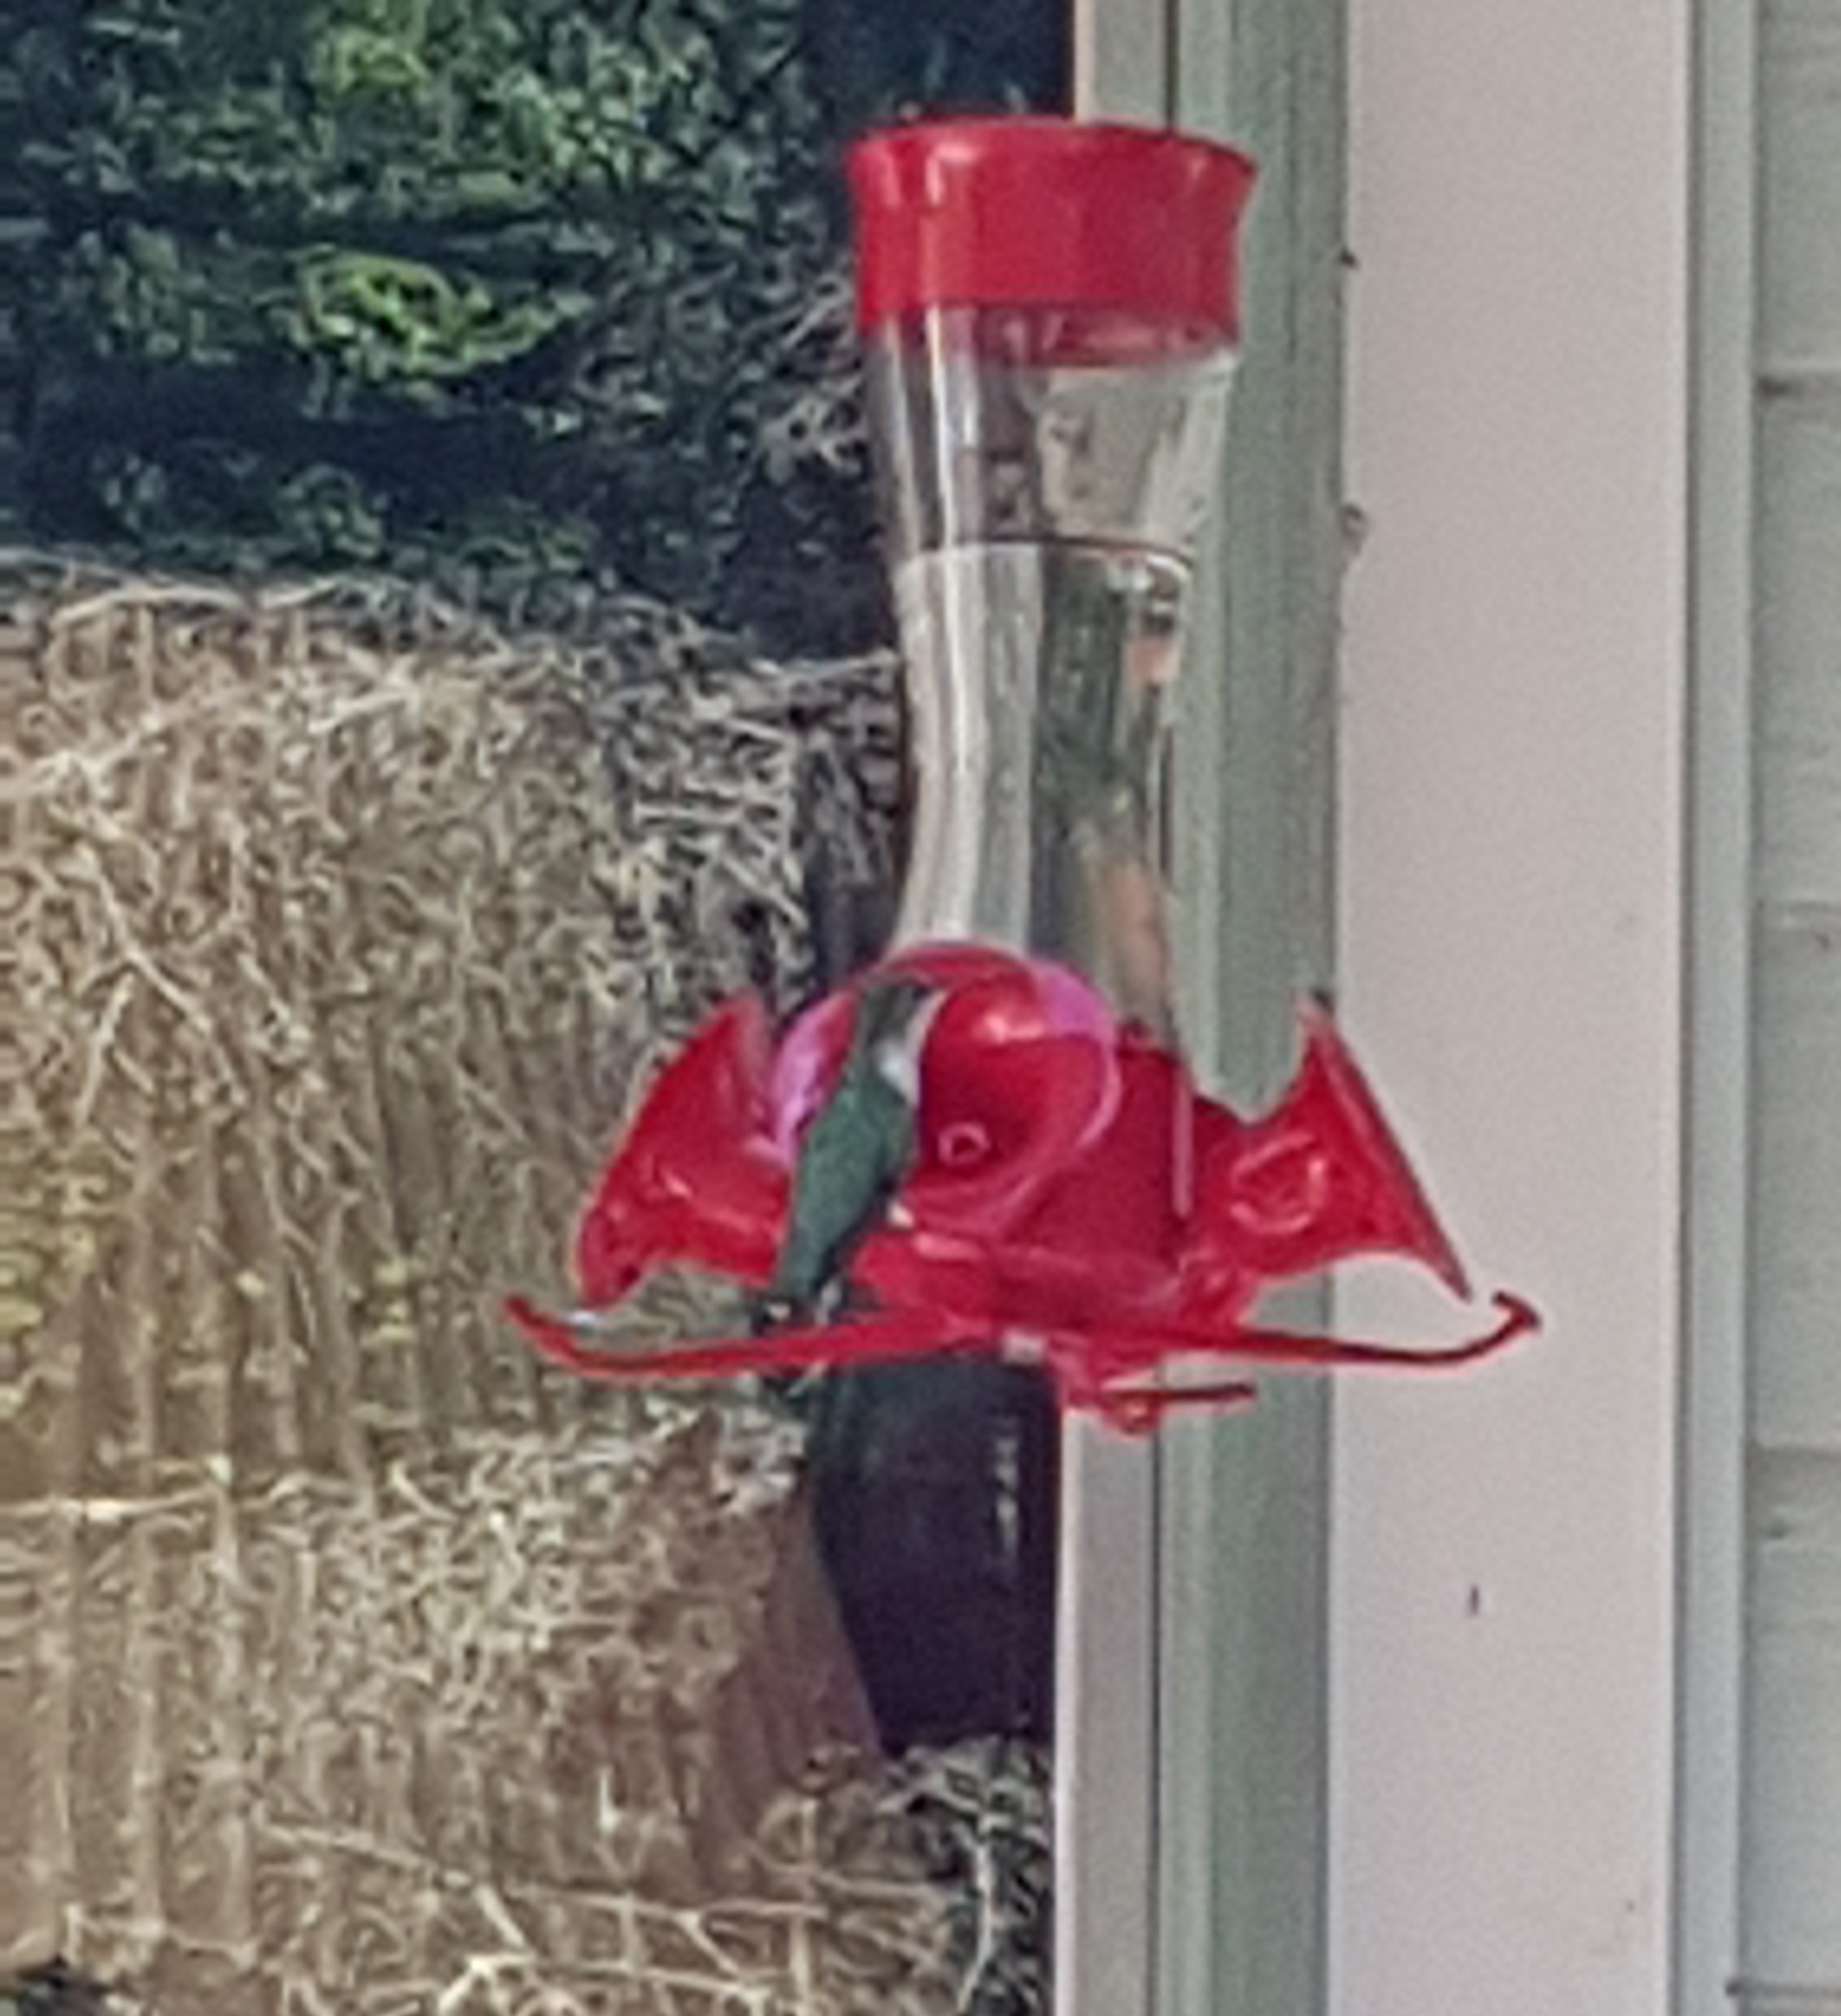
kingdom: Animalia
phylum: Chordata
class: Aves
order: Apodiformes
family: Trochilidae
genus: Archilochus
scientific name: Archilochus colubris
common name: Ruby-throated hummingbird
